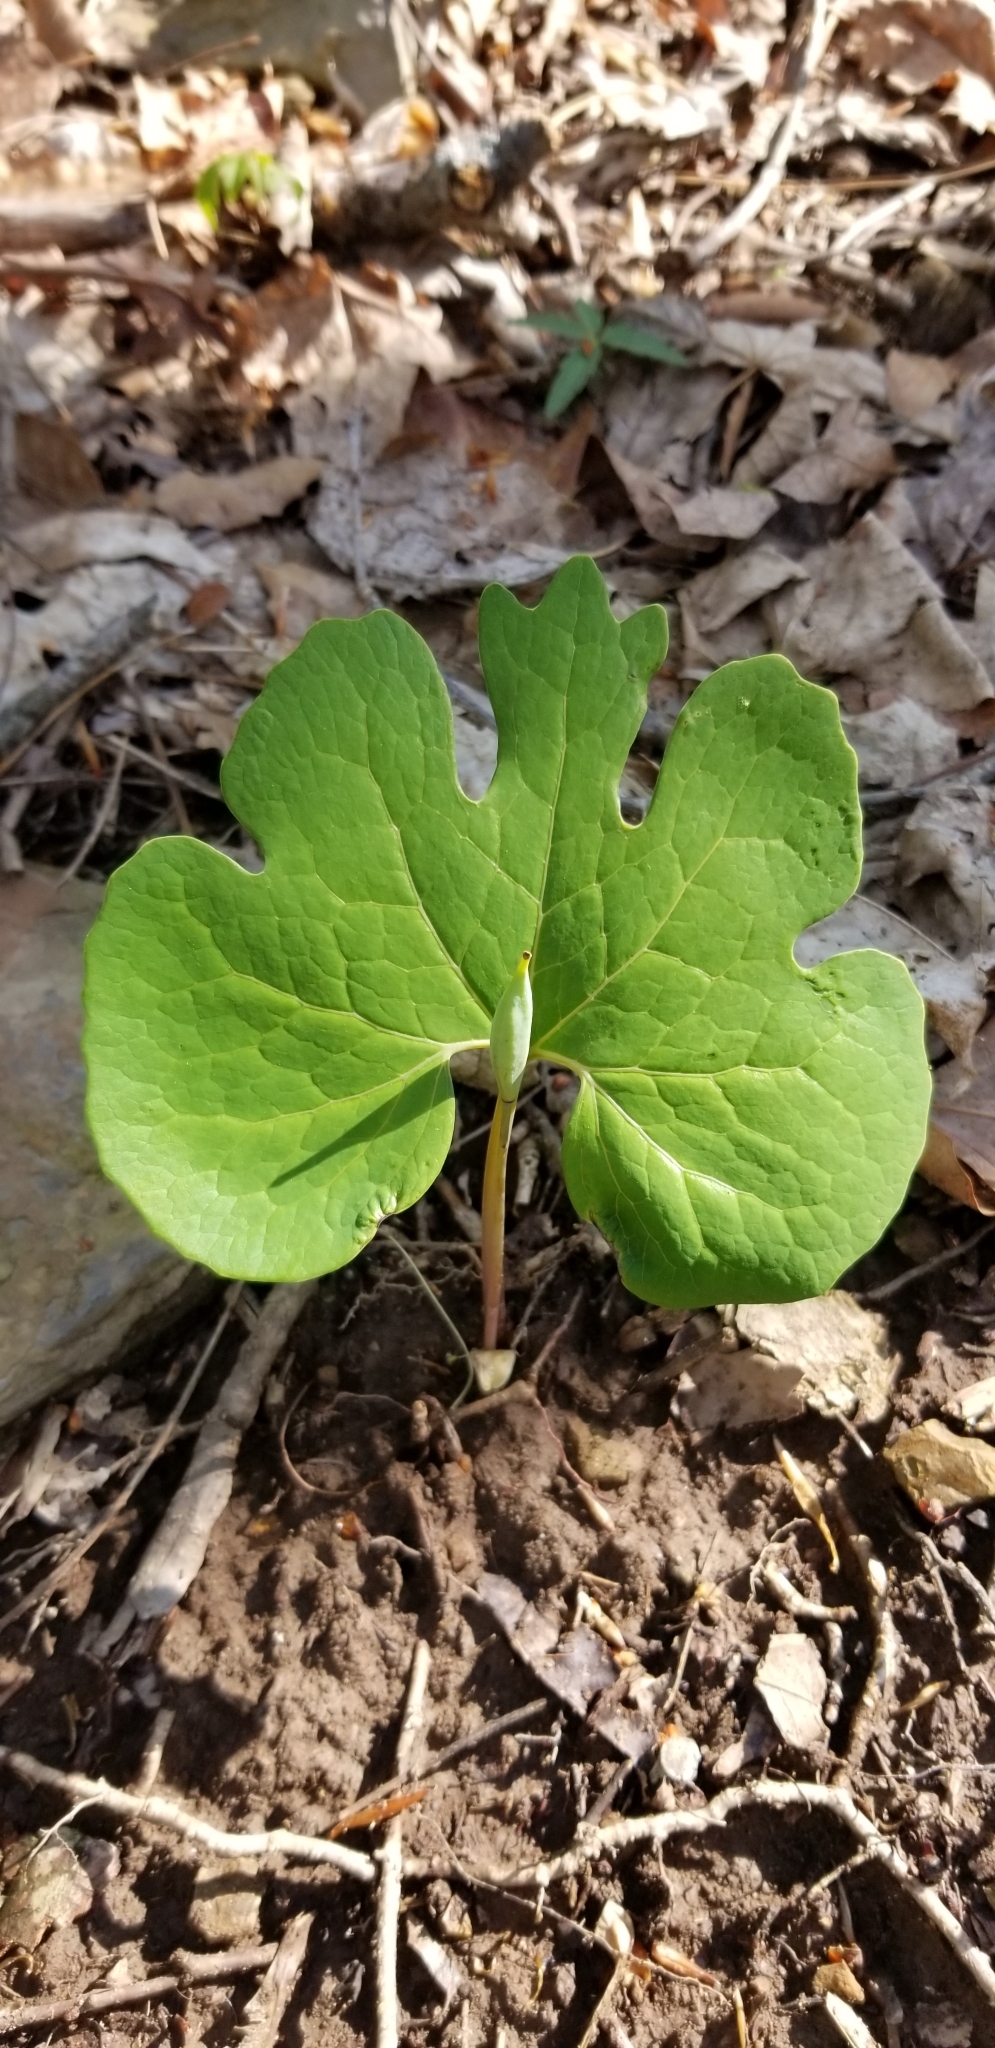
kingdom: Plantae
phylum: Tracheophyta
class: Magnoliopsida
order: Ranunculales
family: Papaveraceae
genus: Sanguinaria
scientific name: Sanguinaria canadensis
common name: Bloodroot
